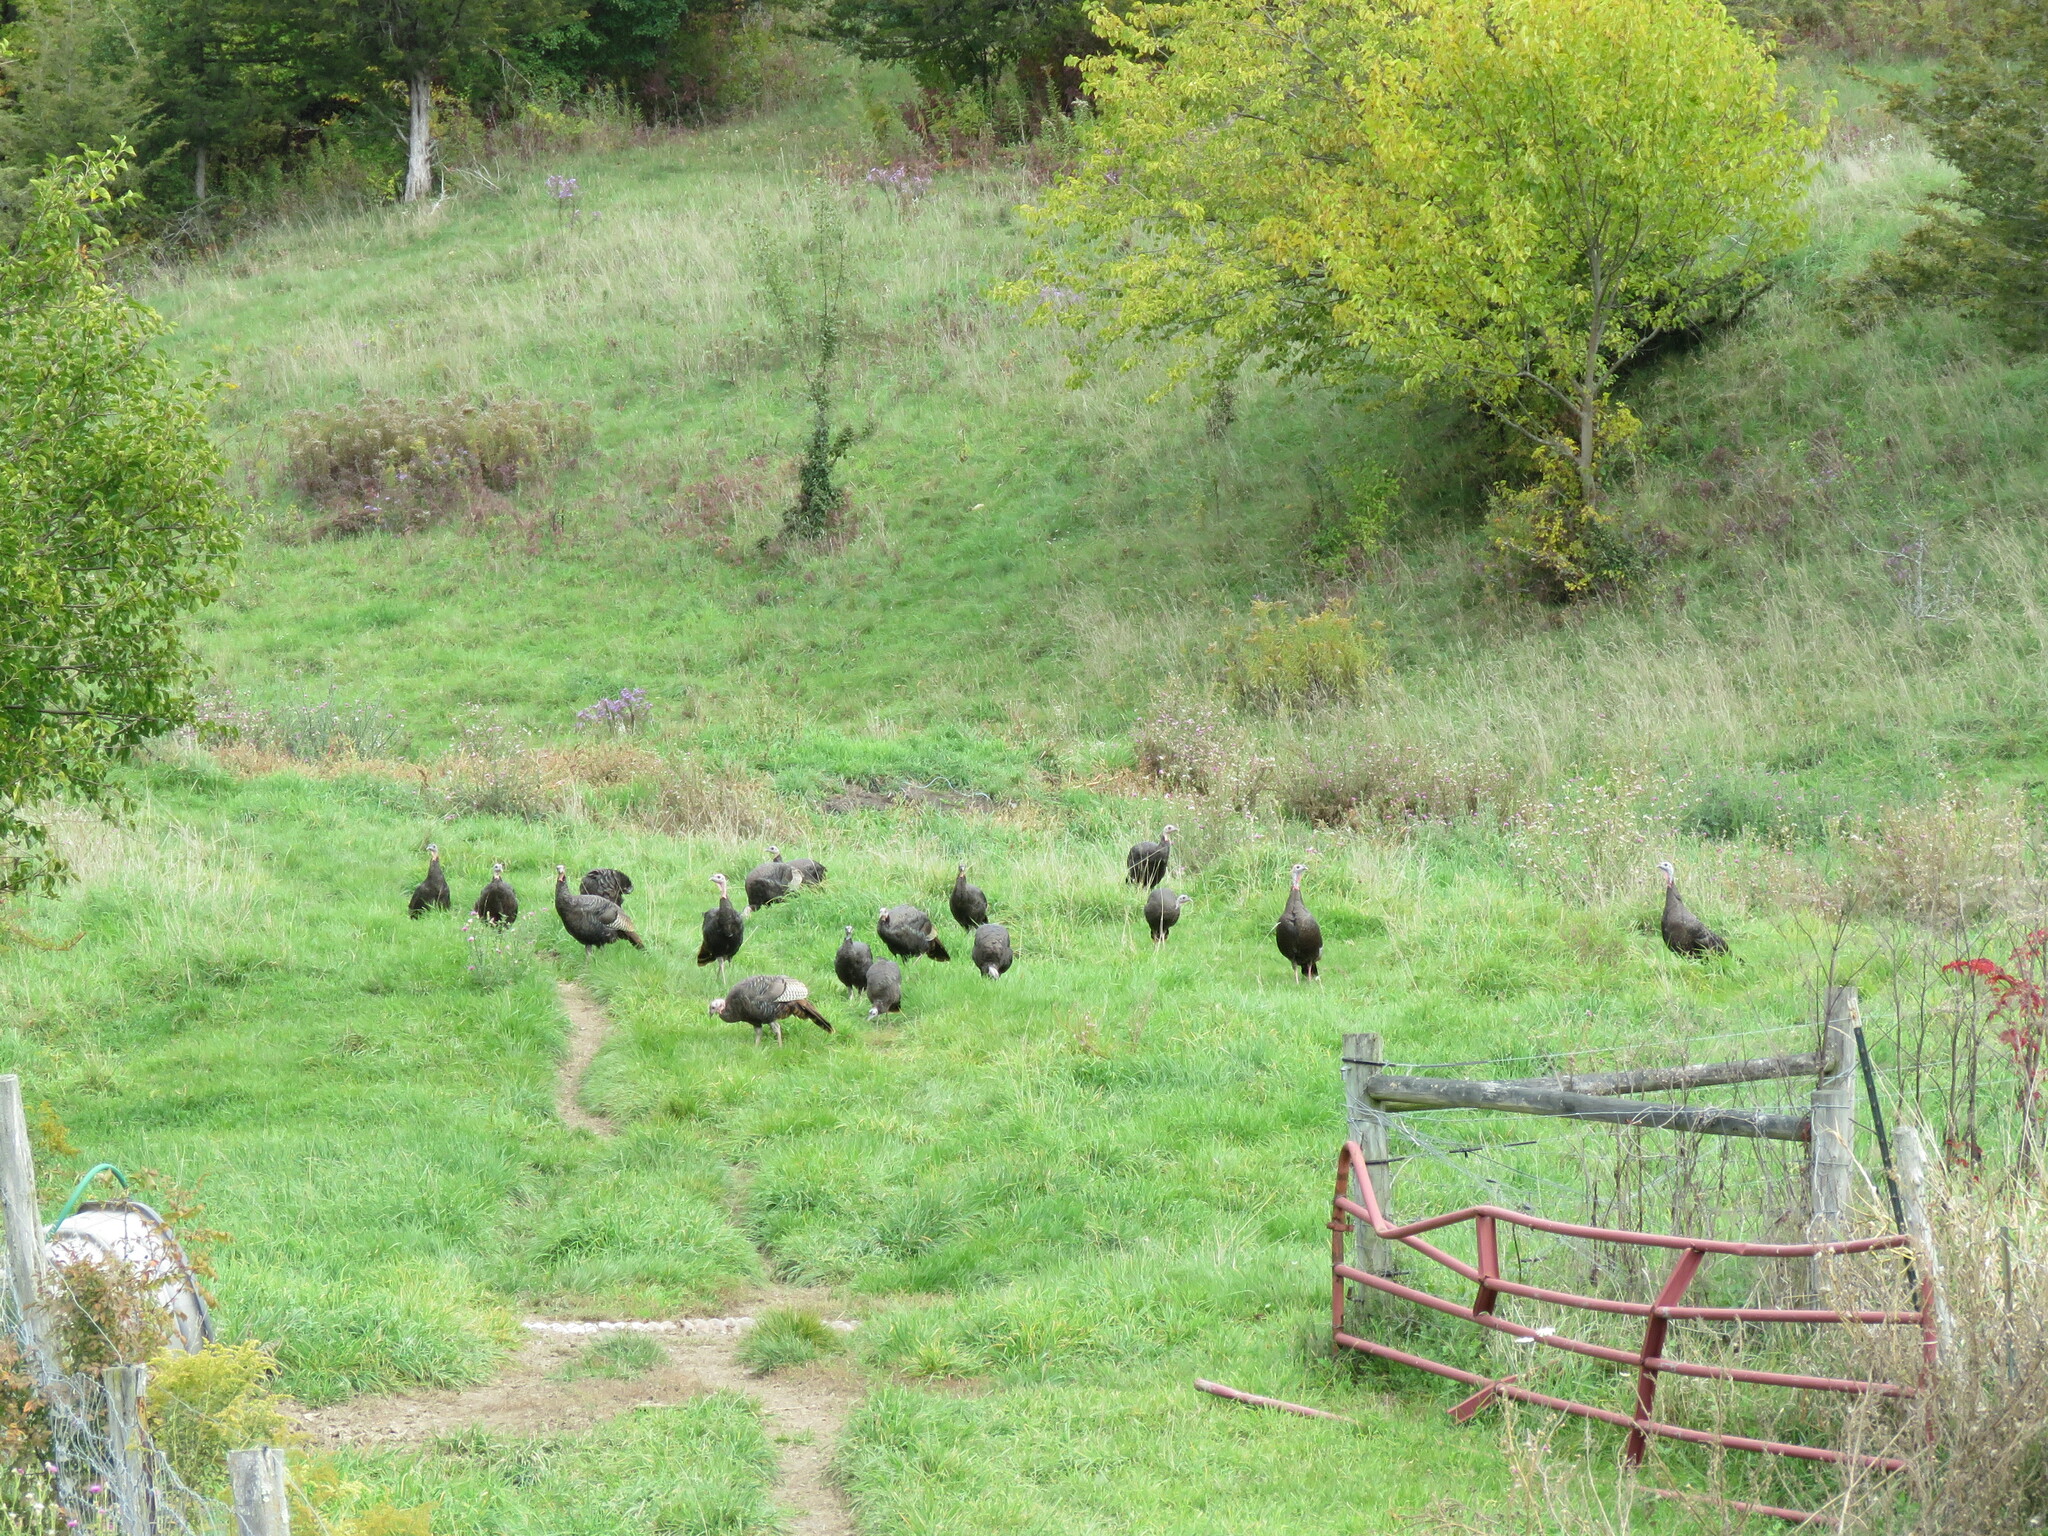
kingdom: Animalia
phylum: Chordata
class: Aves
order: Galliformes
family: Phasianidae
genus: Meleagris
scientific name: Meleagris gallopavo
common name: Wild turkey
